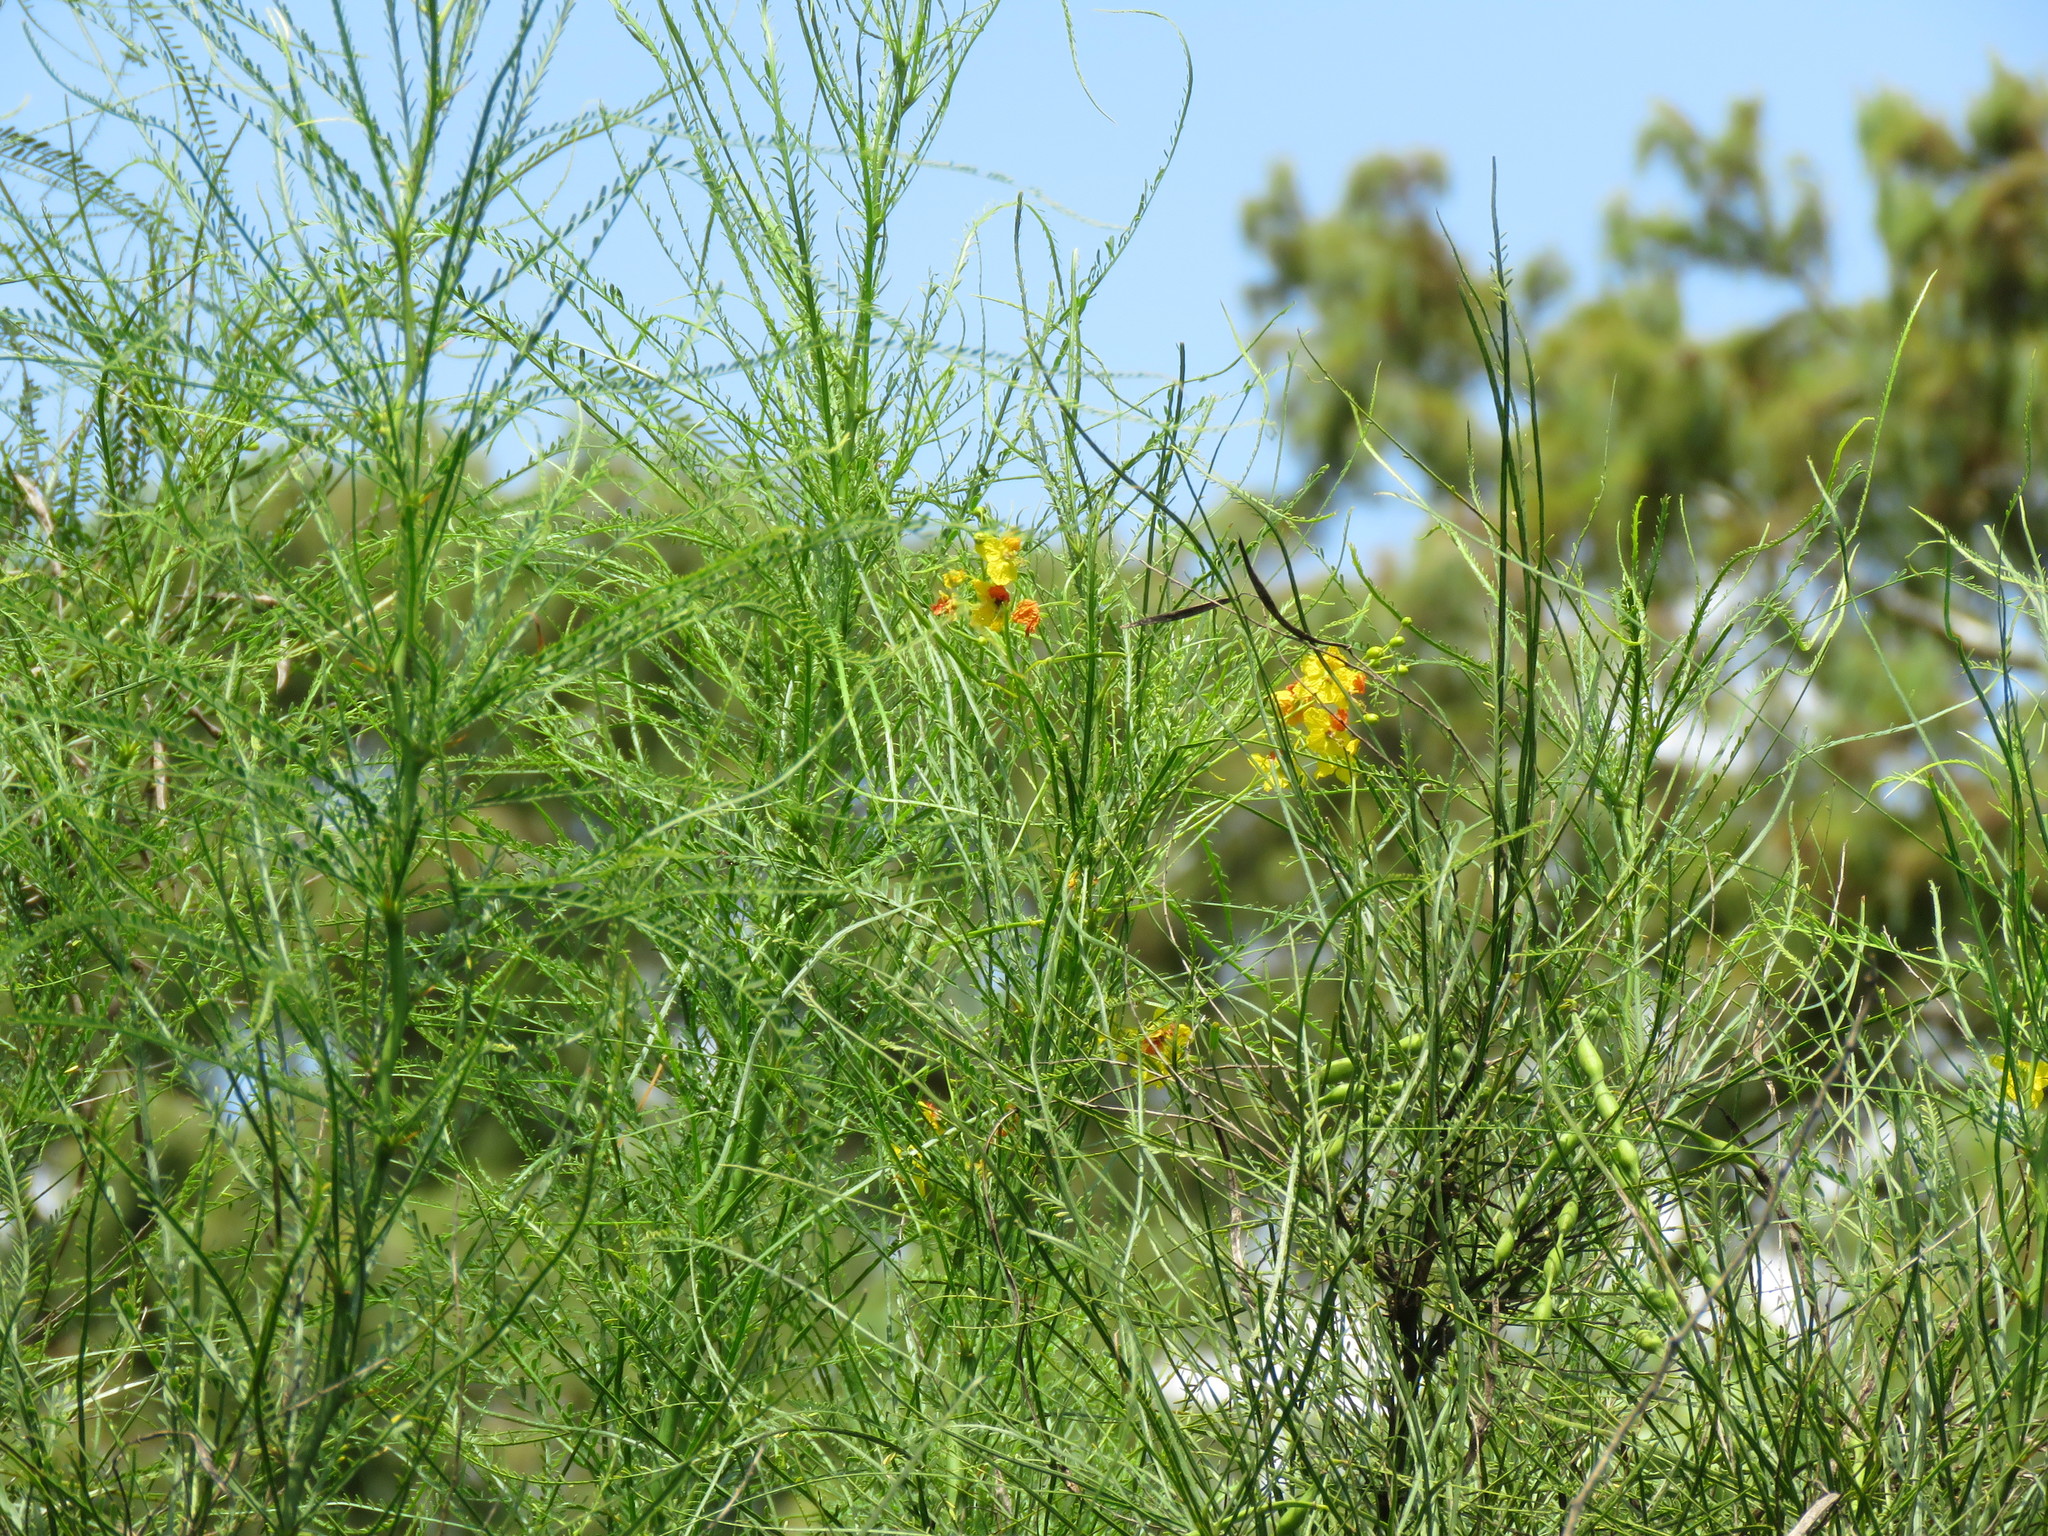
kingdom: Plantae
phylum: Tracheophyta
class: Magnoliopsida
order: Fabales
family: Fabaceae
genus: Parkinsonia
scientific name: Parkinsonia aculeata
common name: Jerusalem thorn
